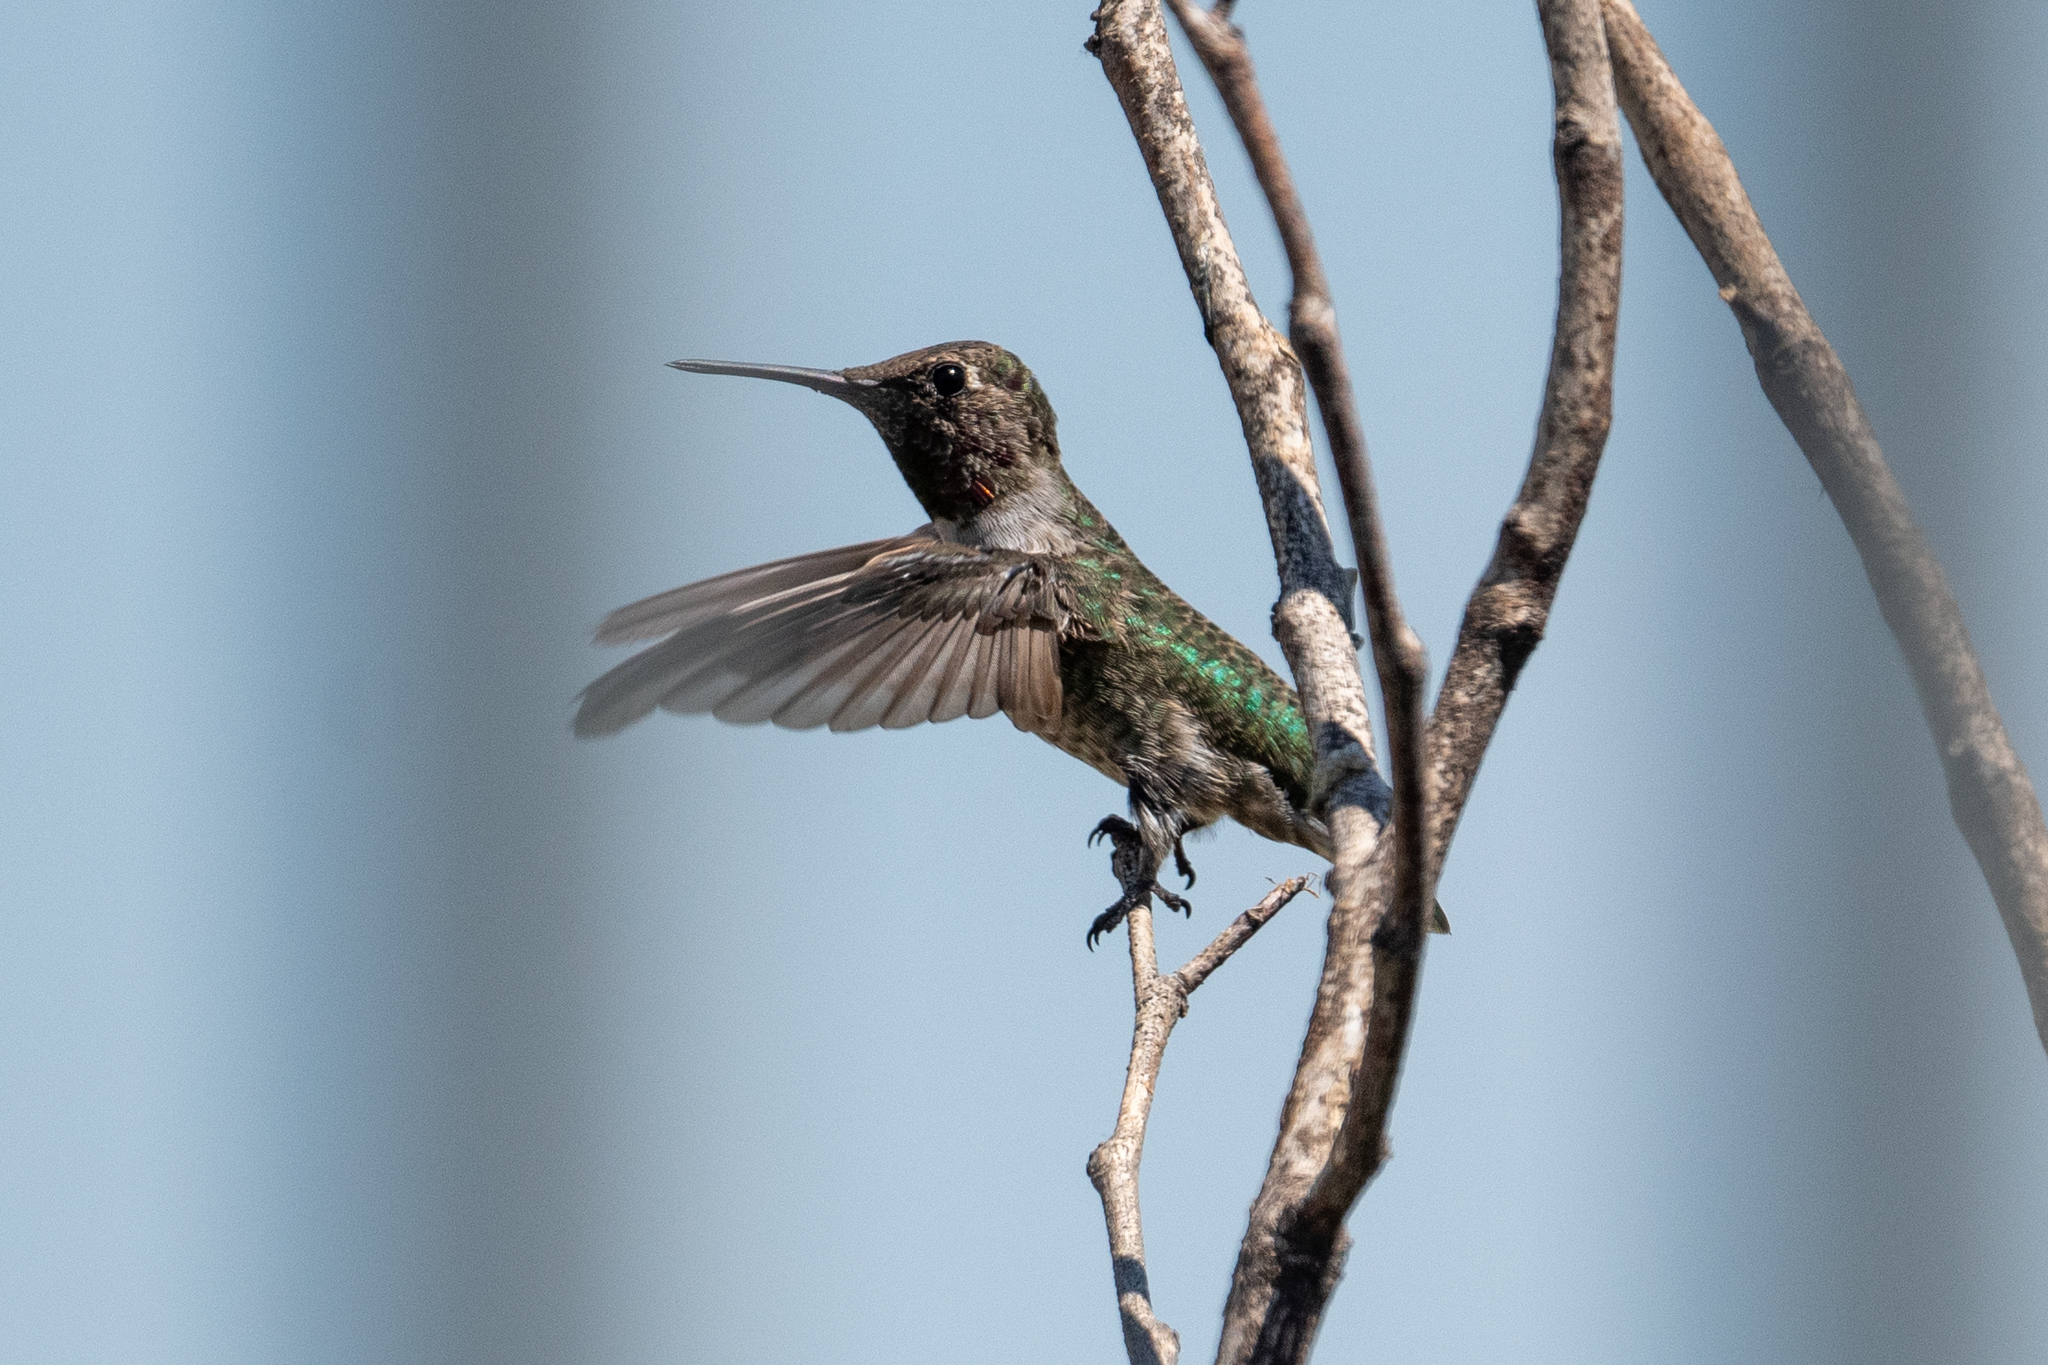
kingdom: Animalia
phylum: Chordata
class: Aves
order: Apodiformes
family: Trochilidae
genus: Calypte
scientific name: Calypte anna
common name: Anna's hummingbird
